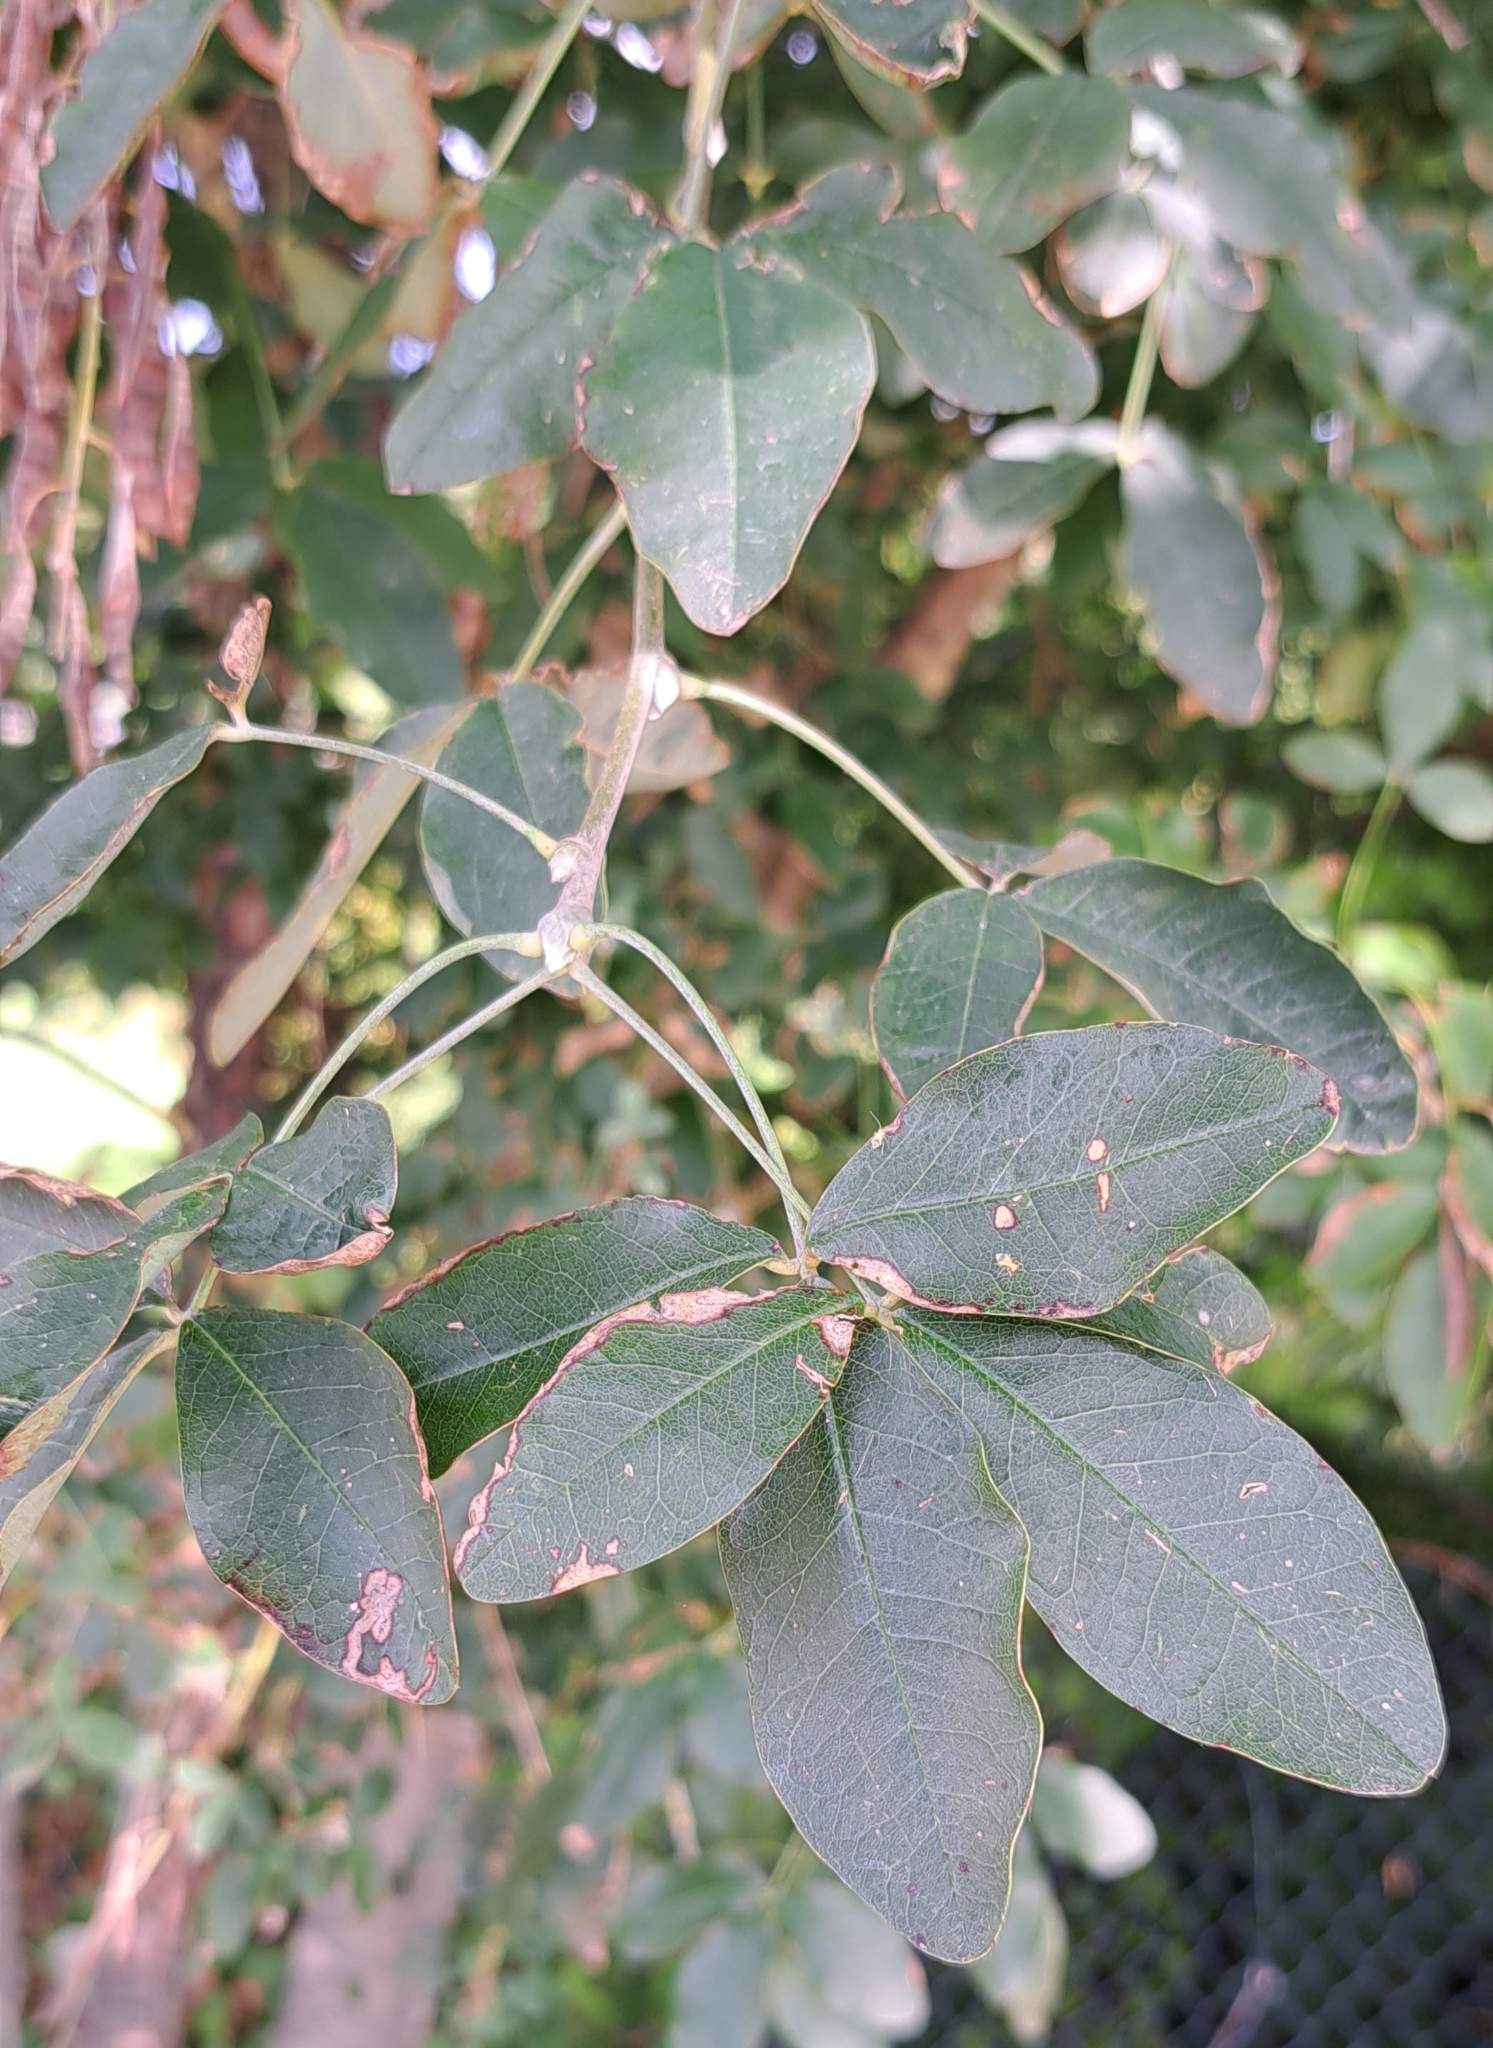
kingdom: Plantae
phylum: Tracheophyta
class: Magnoliopsida
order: Fabales
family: Fabaceae
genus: Laburnum
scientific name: Laburnum anagyroides
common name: Laburnum
